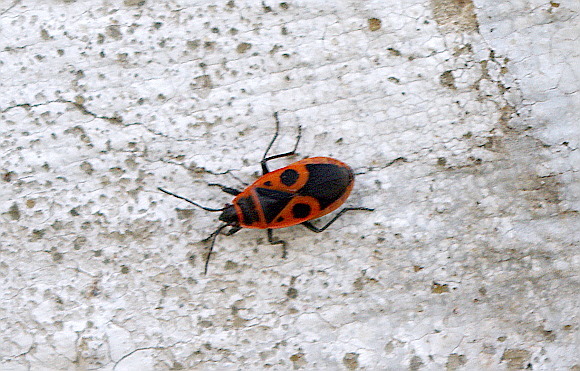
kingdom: Animalia
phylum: Arthropoda
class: Insecta
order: Hemiptera
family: Pyrrhocoridae
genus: Pyrrhocoris
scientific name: Pyrrhocoris apterus
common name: Firebug
